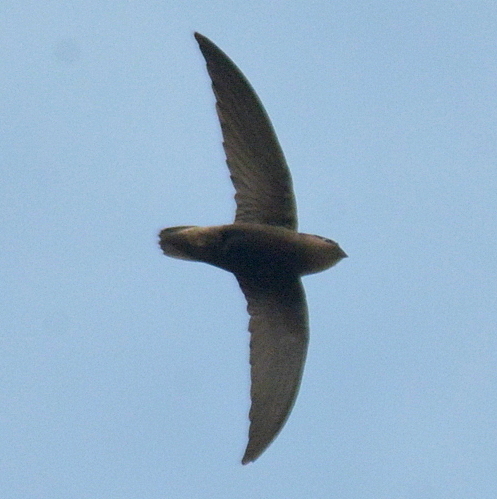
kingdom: Animalia
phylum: Chordata
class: Aves
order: Apodiformes
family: Apodidae
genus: Chaetura
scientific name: Chaetura meridionalis
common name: Sick's swift
